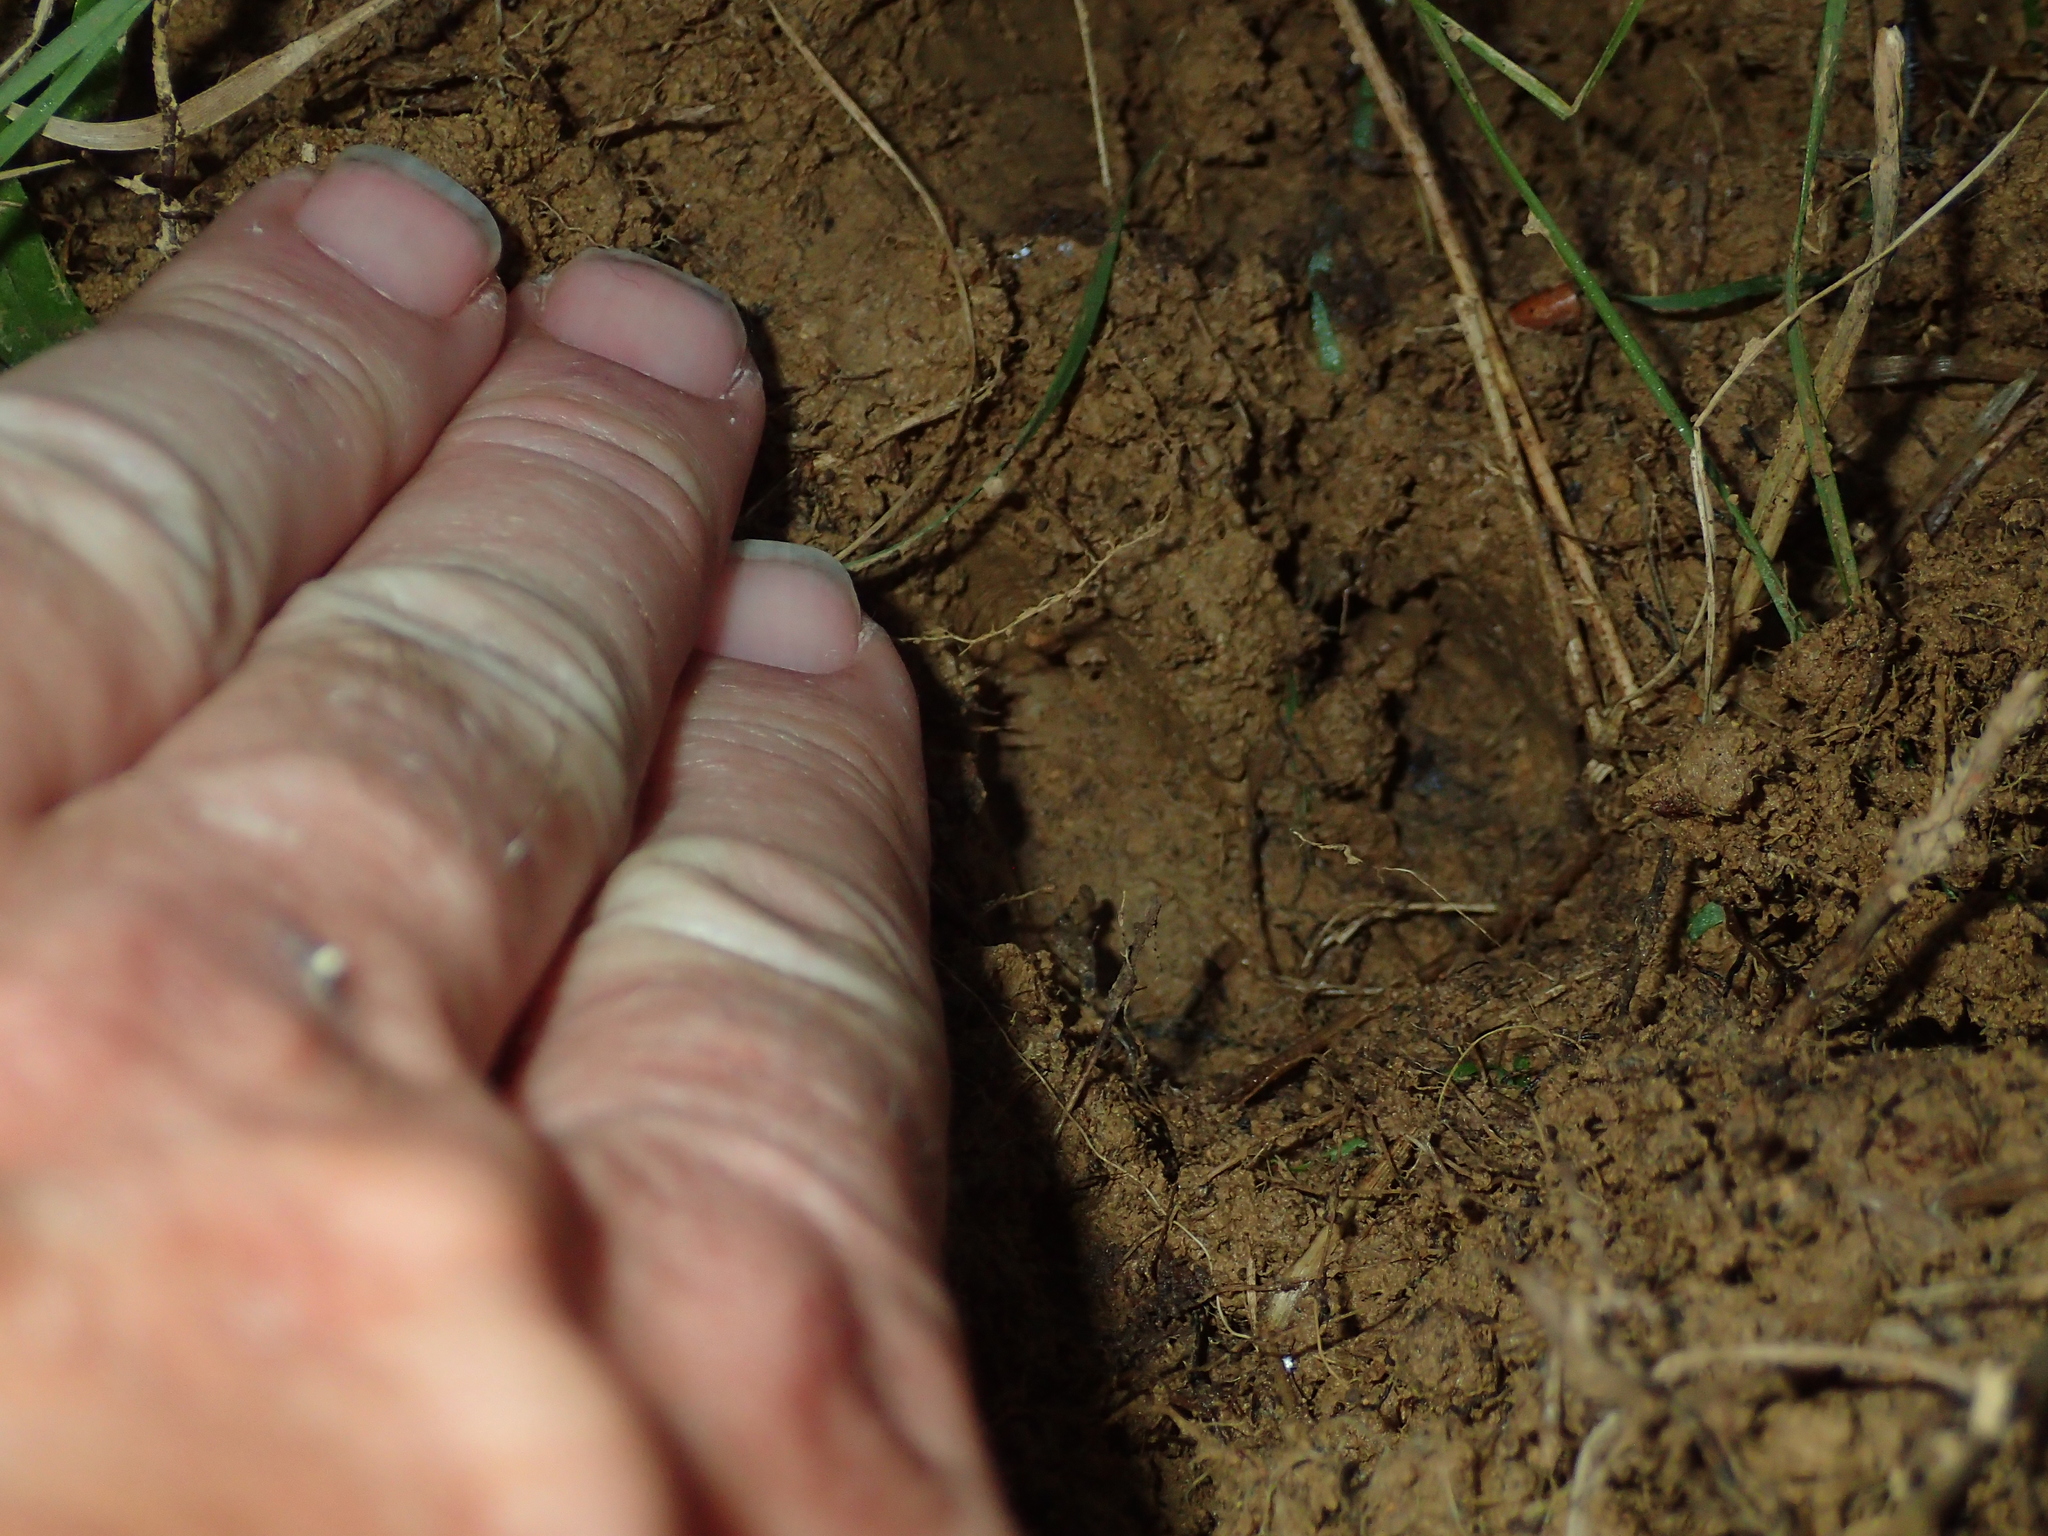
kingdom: Animalia
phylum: Chordata
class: Mammalia
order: Artiodactyla
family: Suidae
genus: Sus
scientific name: Sus scrofa
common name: Wild boar
